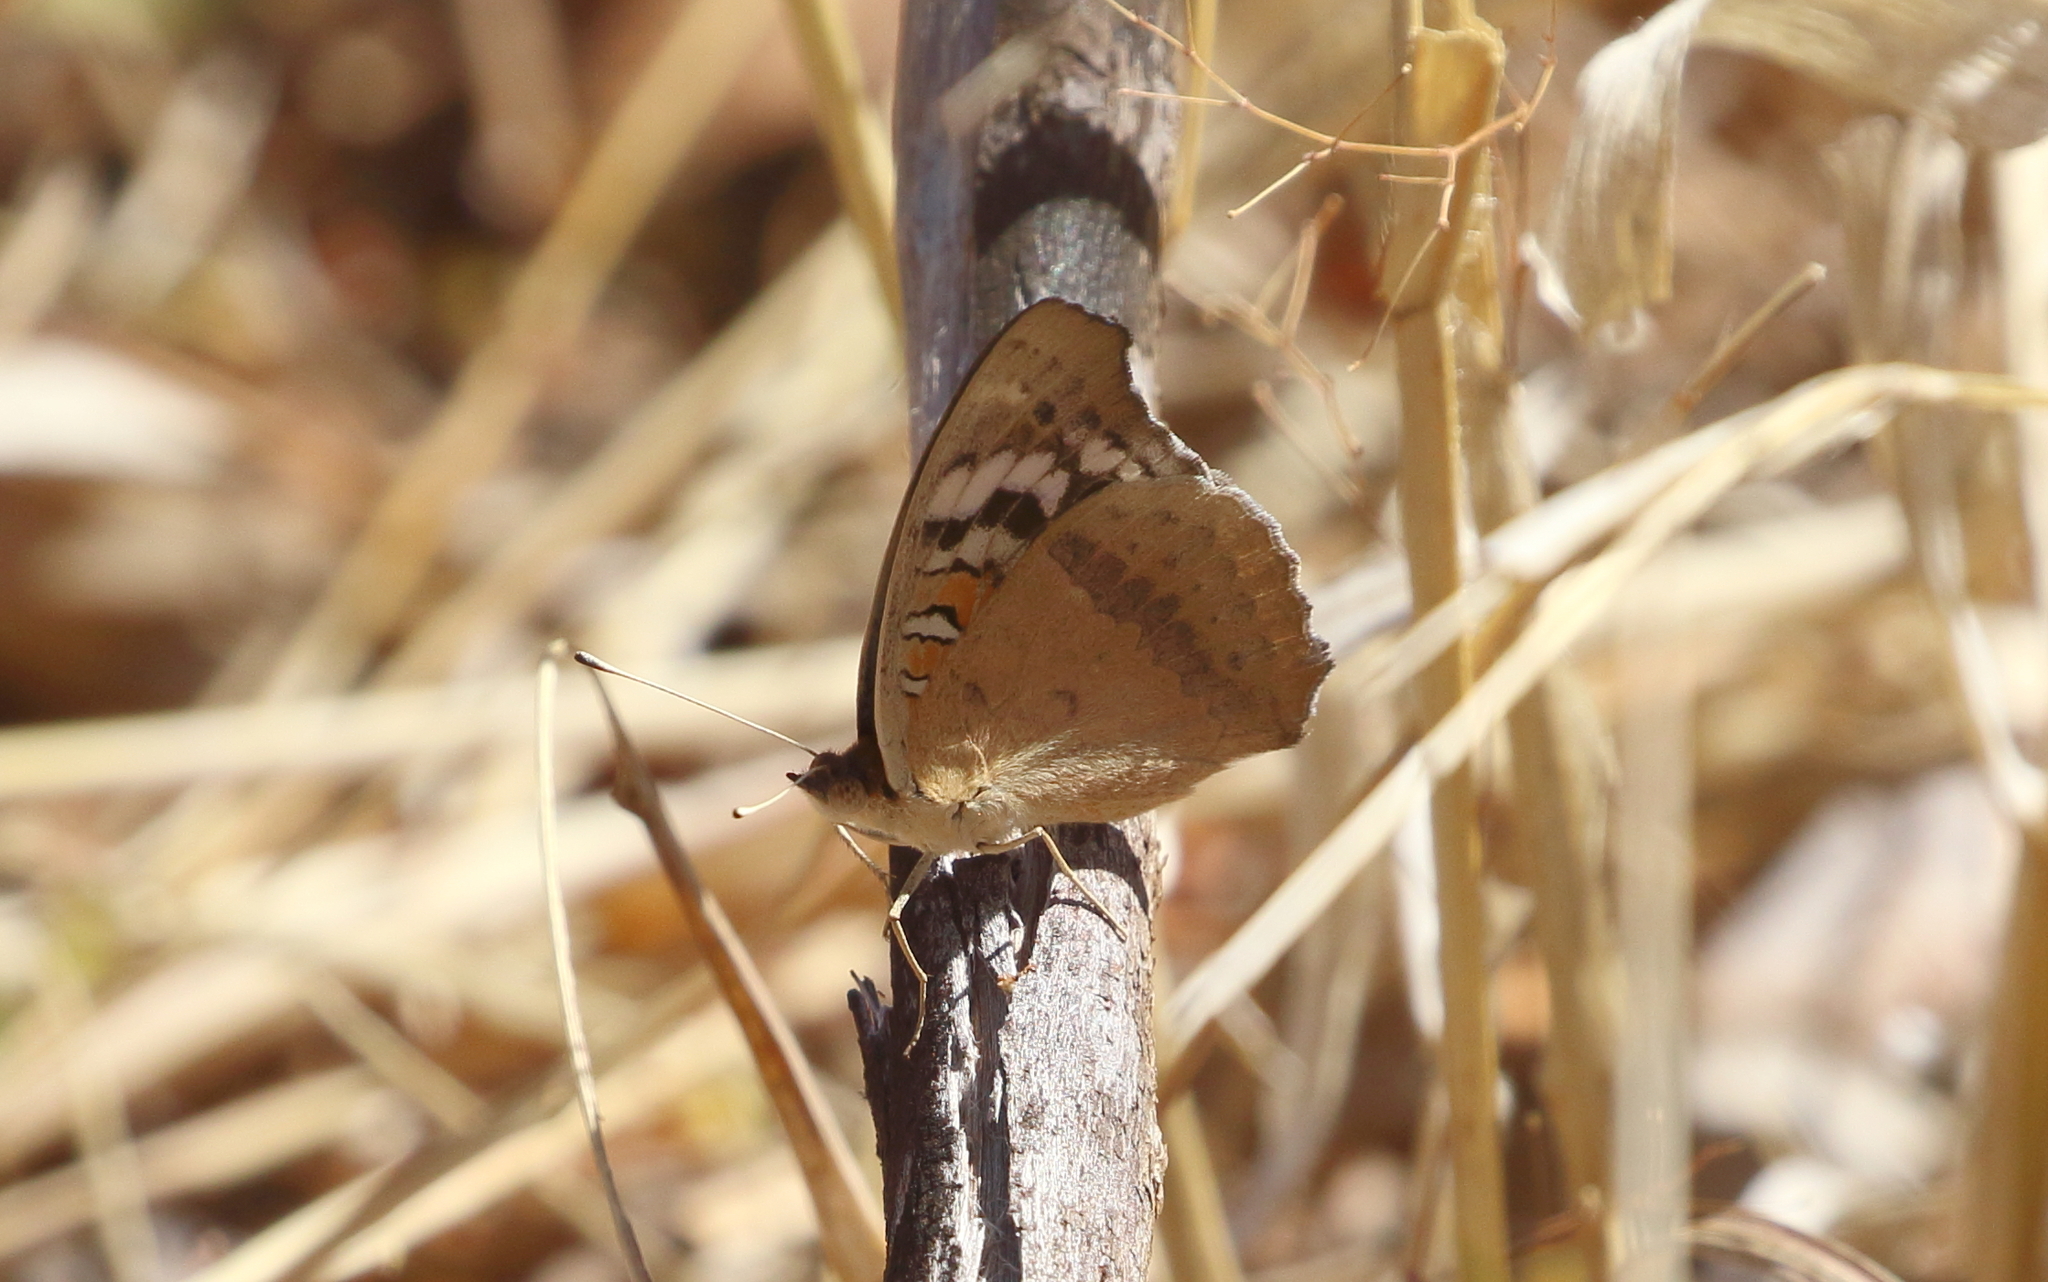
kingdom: Animalia
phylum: Arthropoda
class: Insecta
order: Lepidoptera
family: Nymphalidae
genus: Junonia
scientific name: Junonia orithya
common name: Blue pansy
